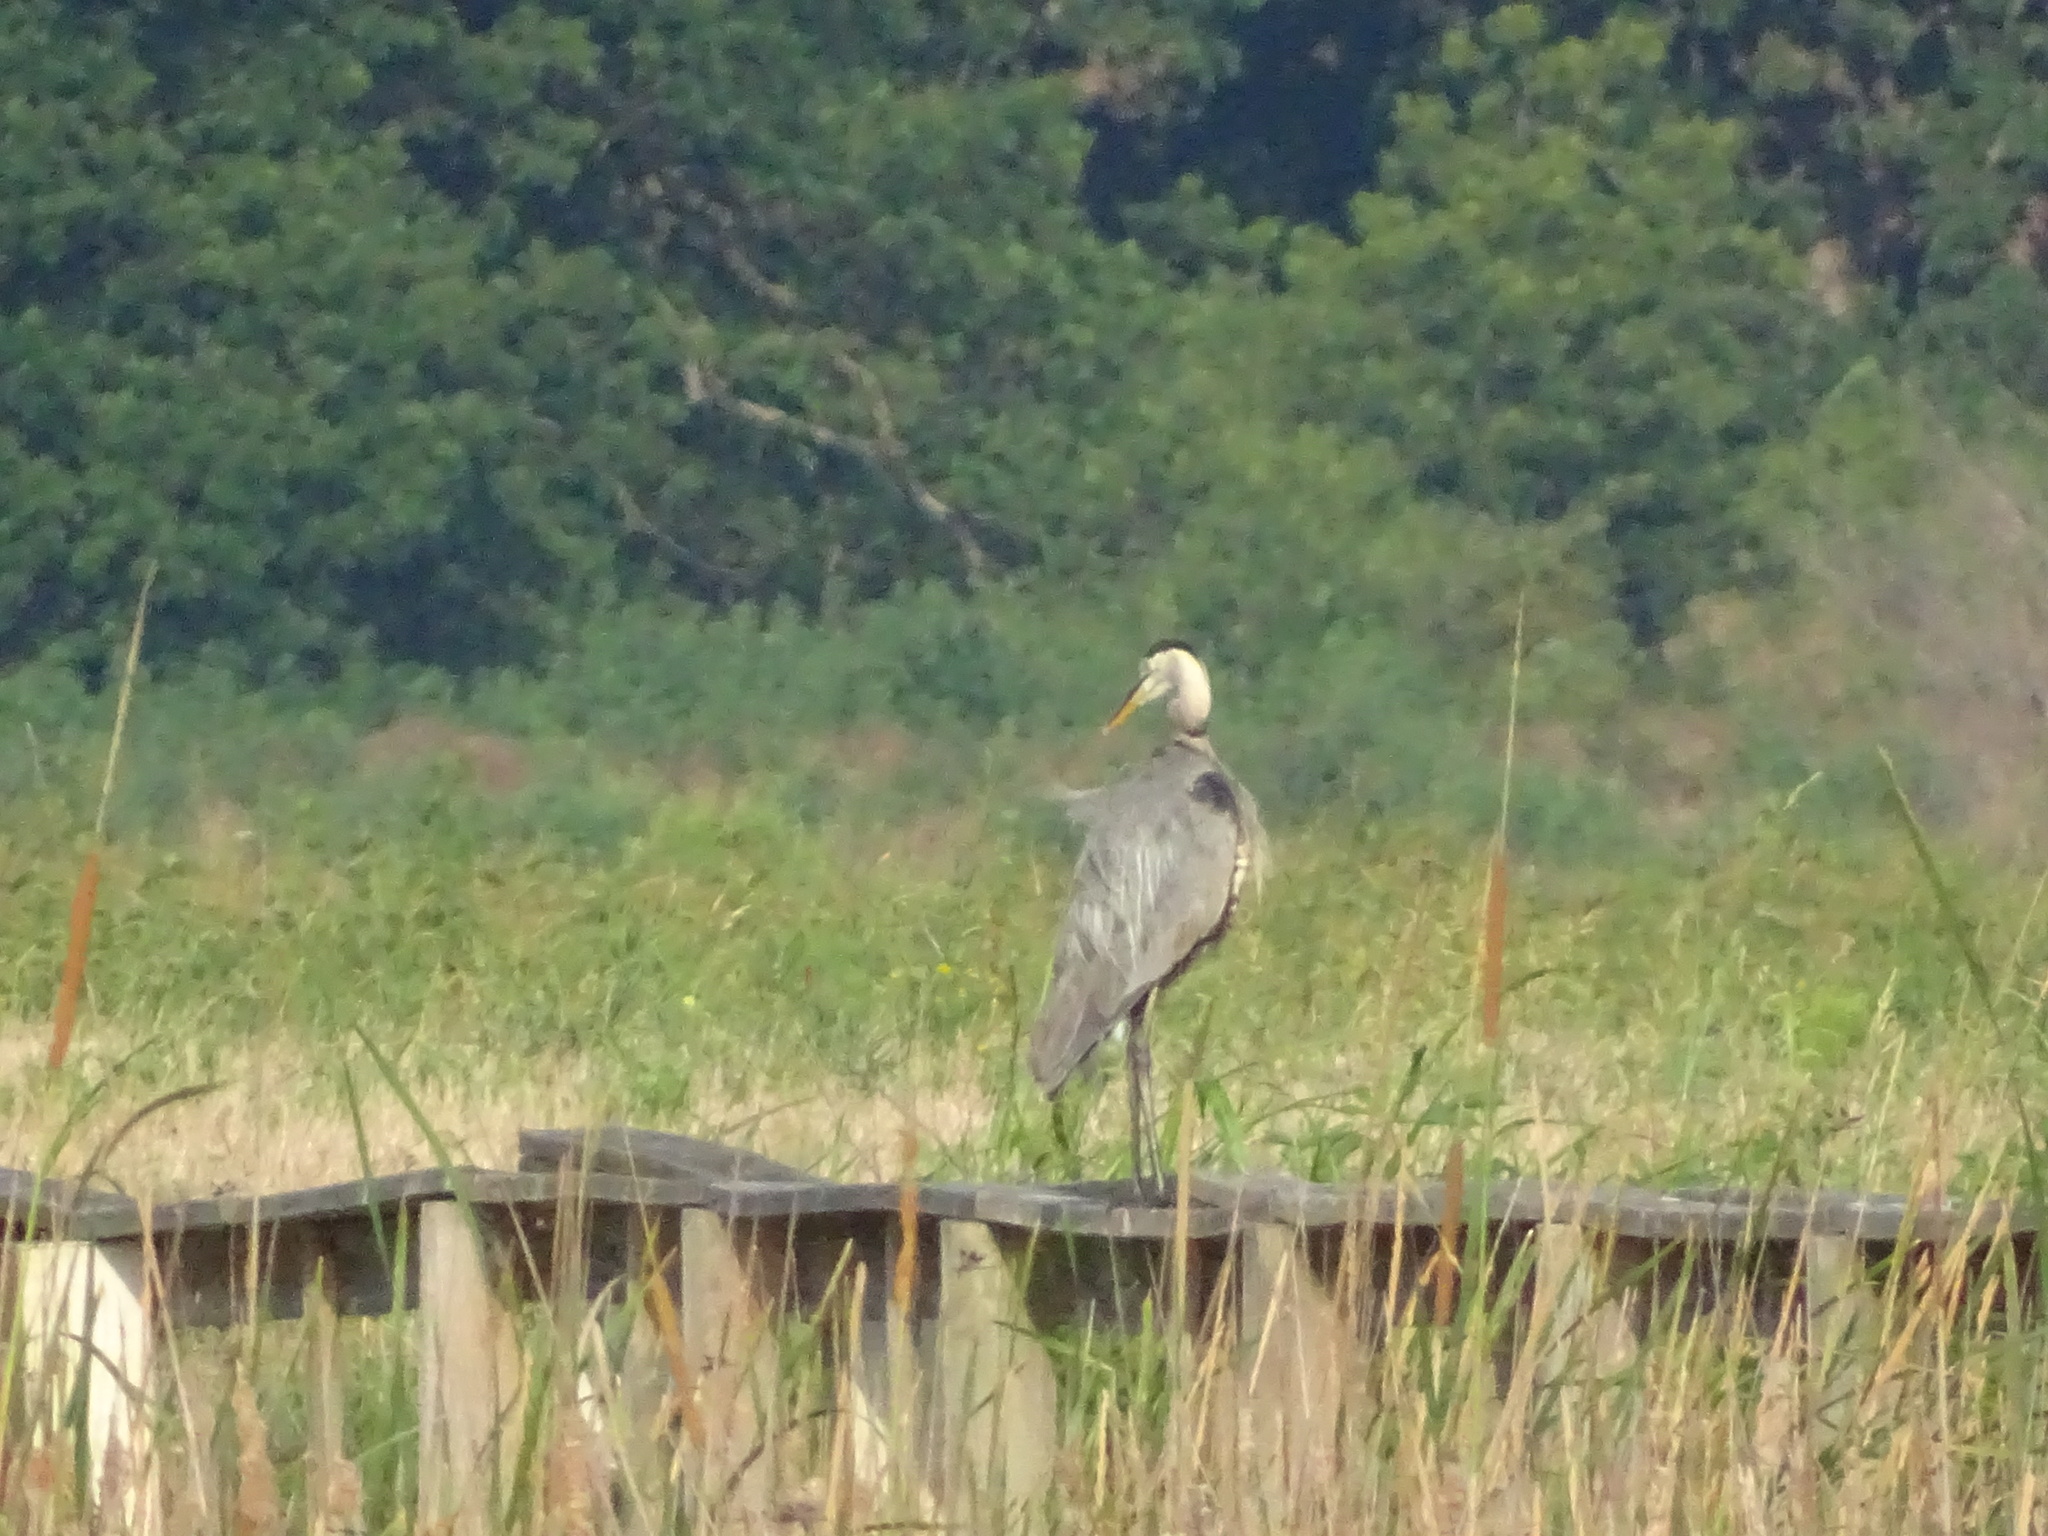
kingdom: Animalia
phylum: Chordata
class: Aves
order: Pelecaniformes
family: Ardeidae
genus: Ardea
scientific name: Ardea herodias
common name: Great blue heron
